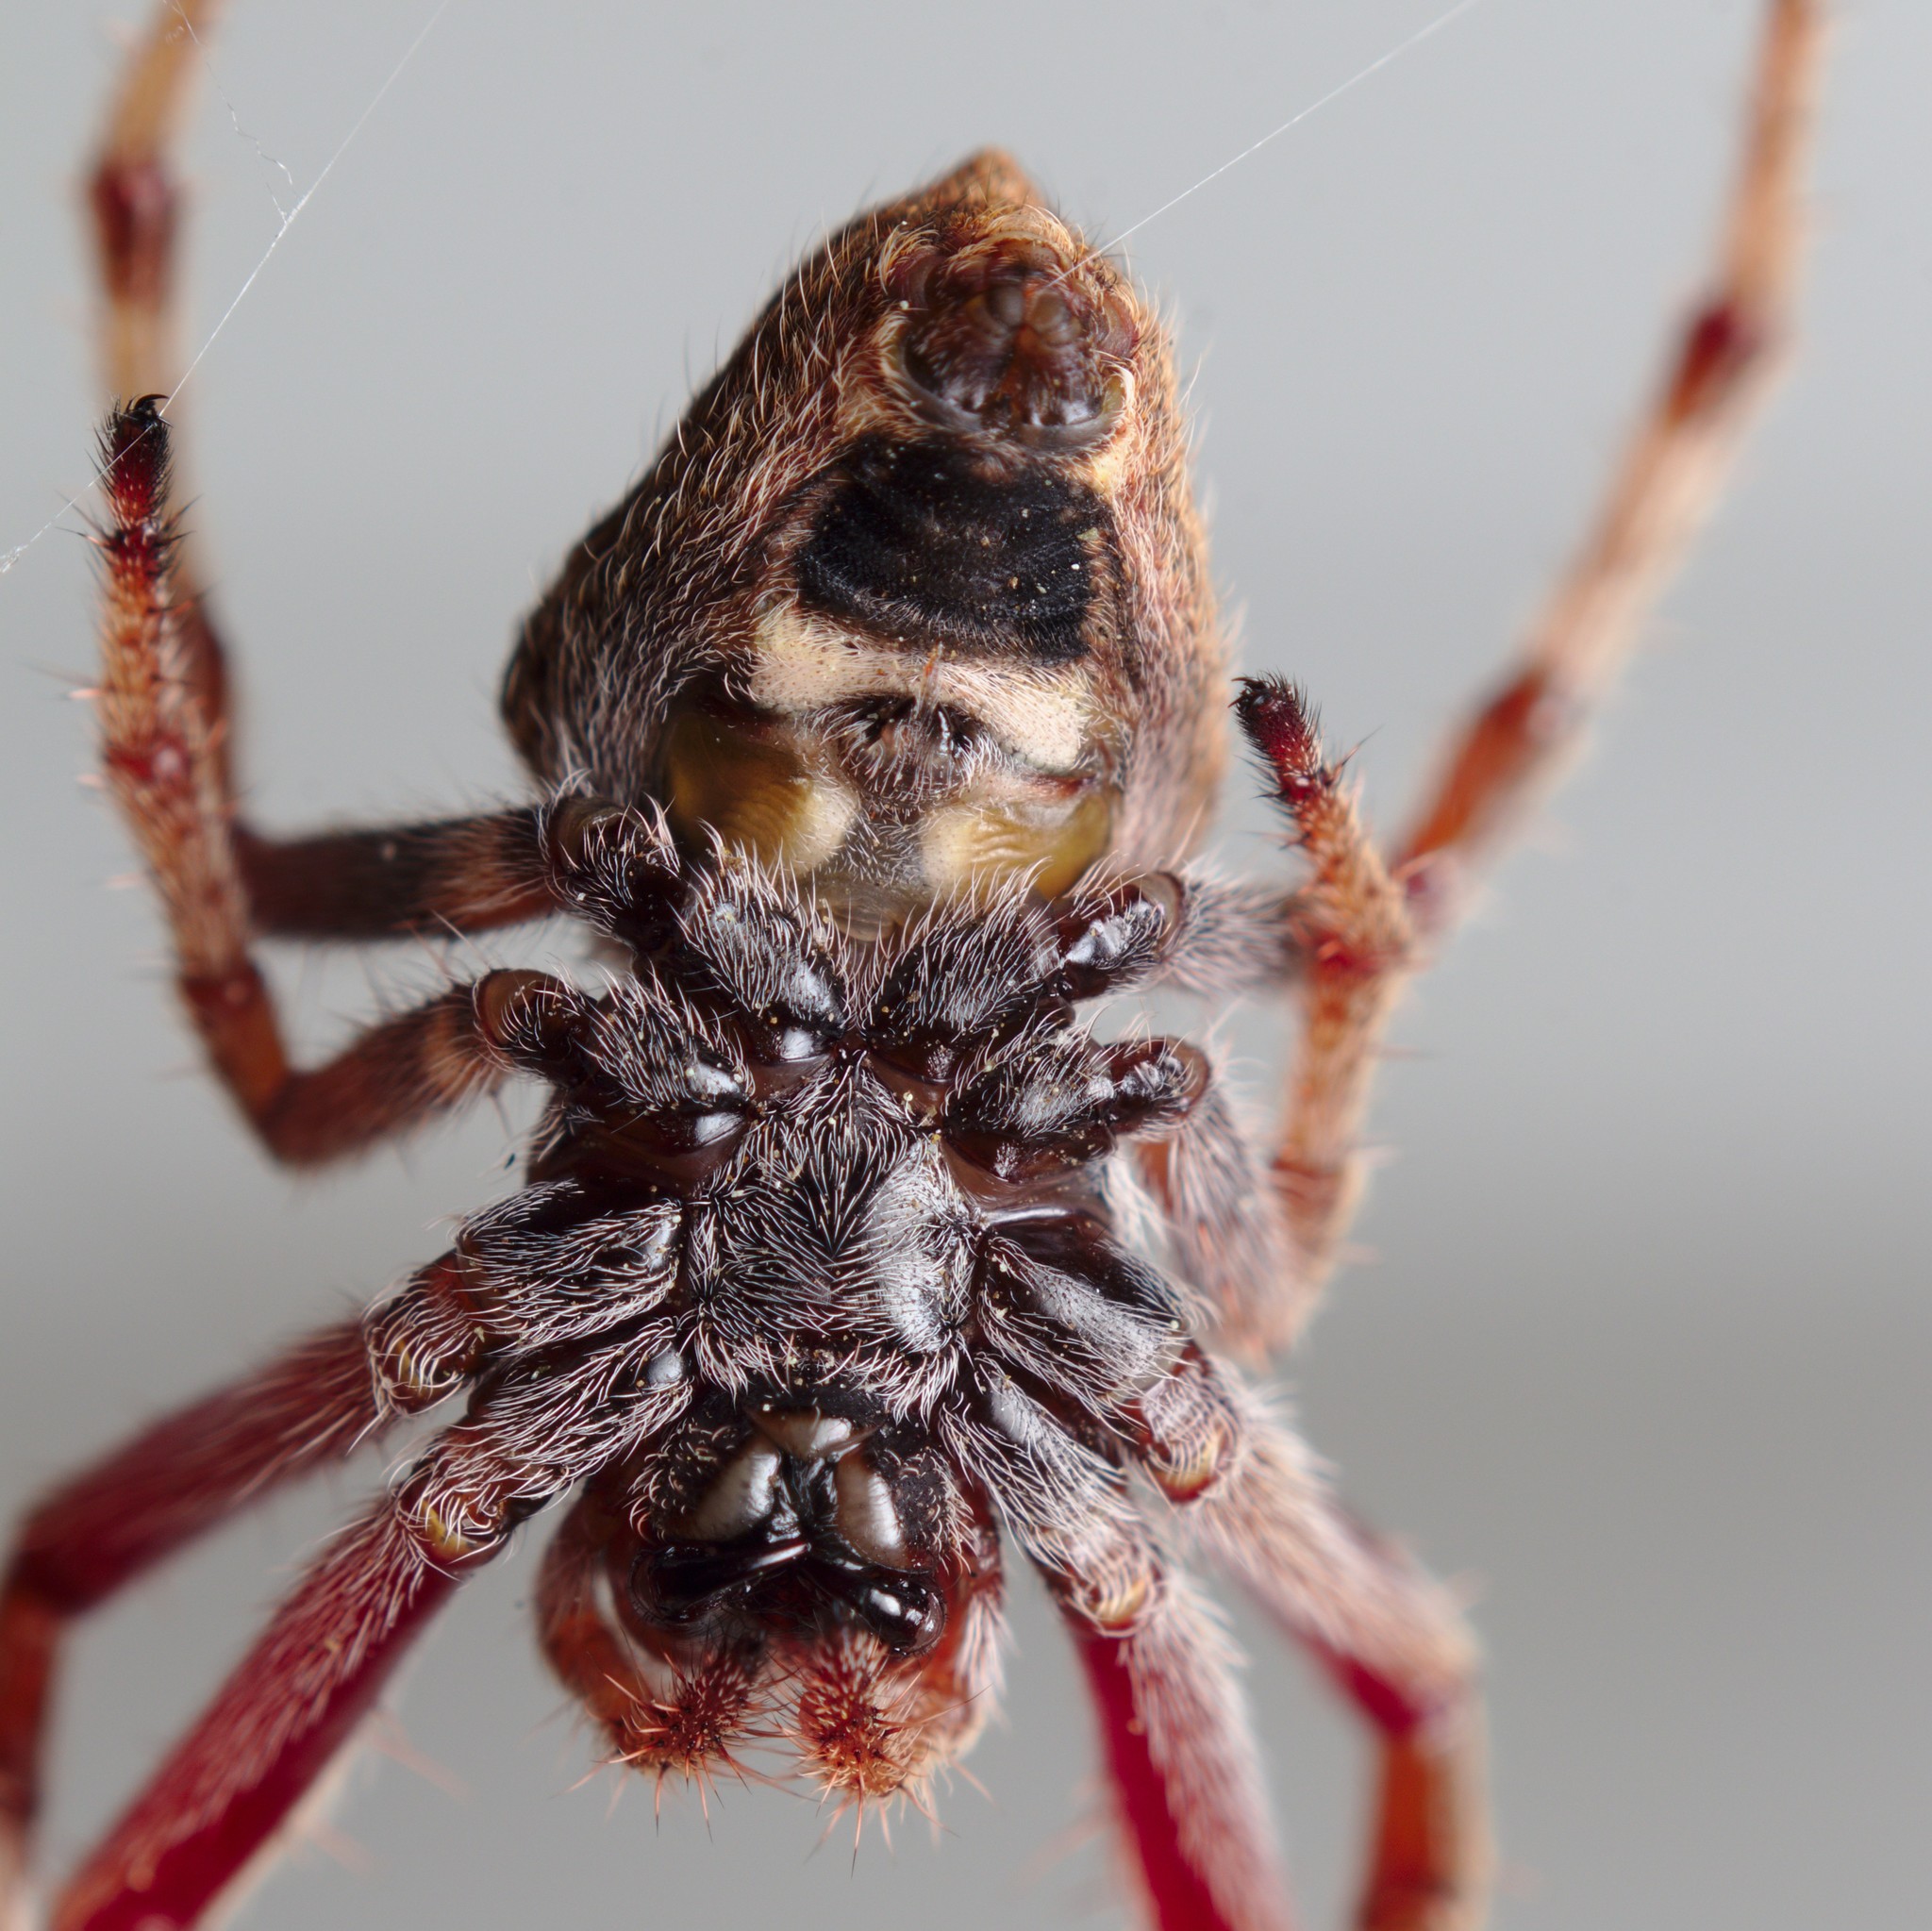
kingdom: Animalia
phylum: Arthropoda
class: Arachnida
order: Araneae
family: Araneidae
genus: Eriophora
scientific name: Eriophora pustulosa
